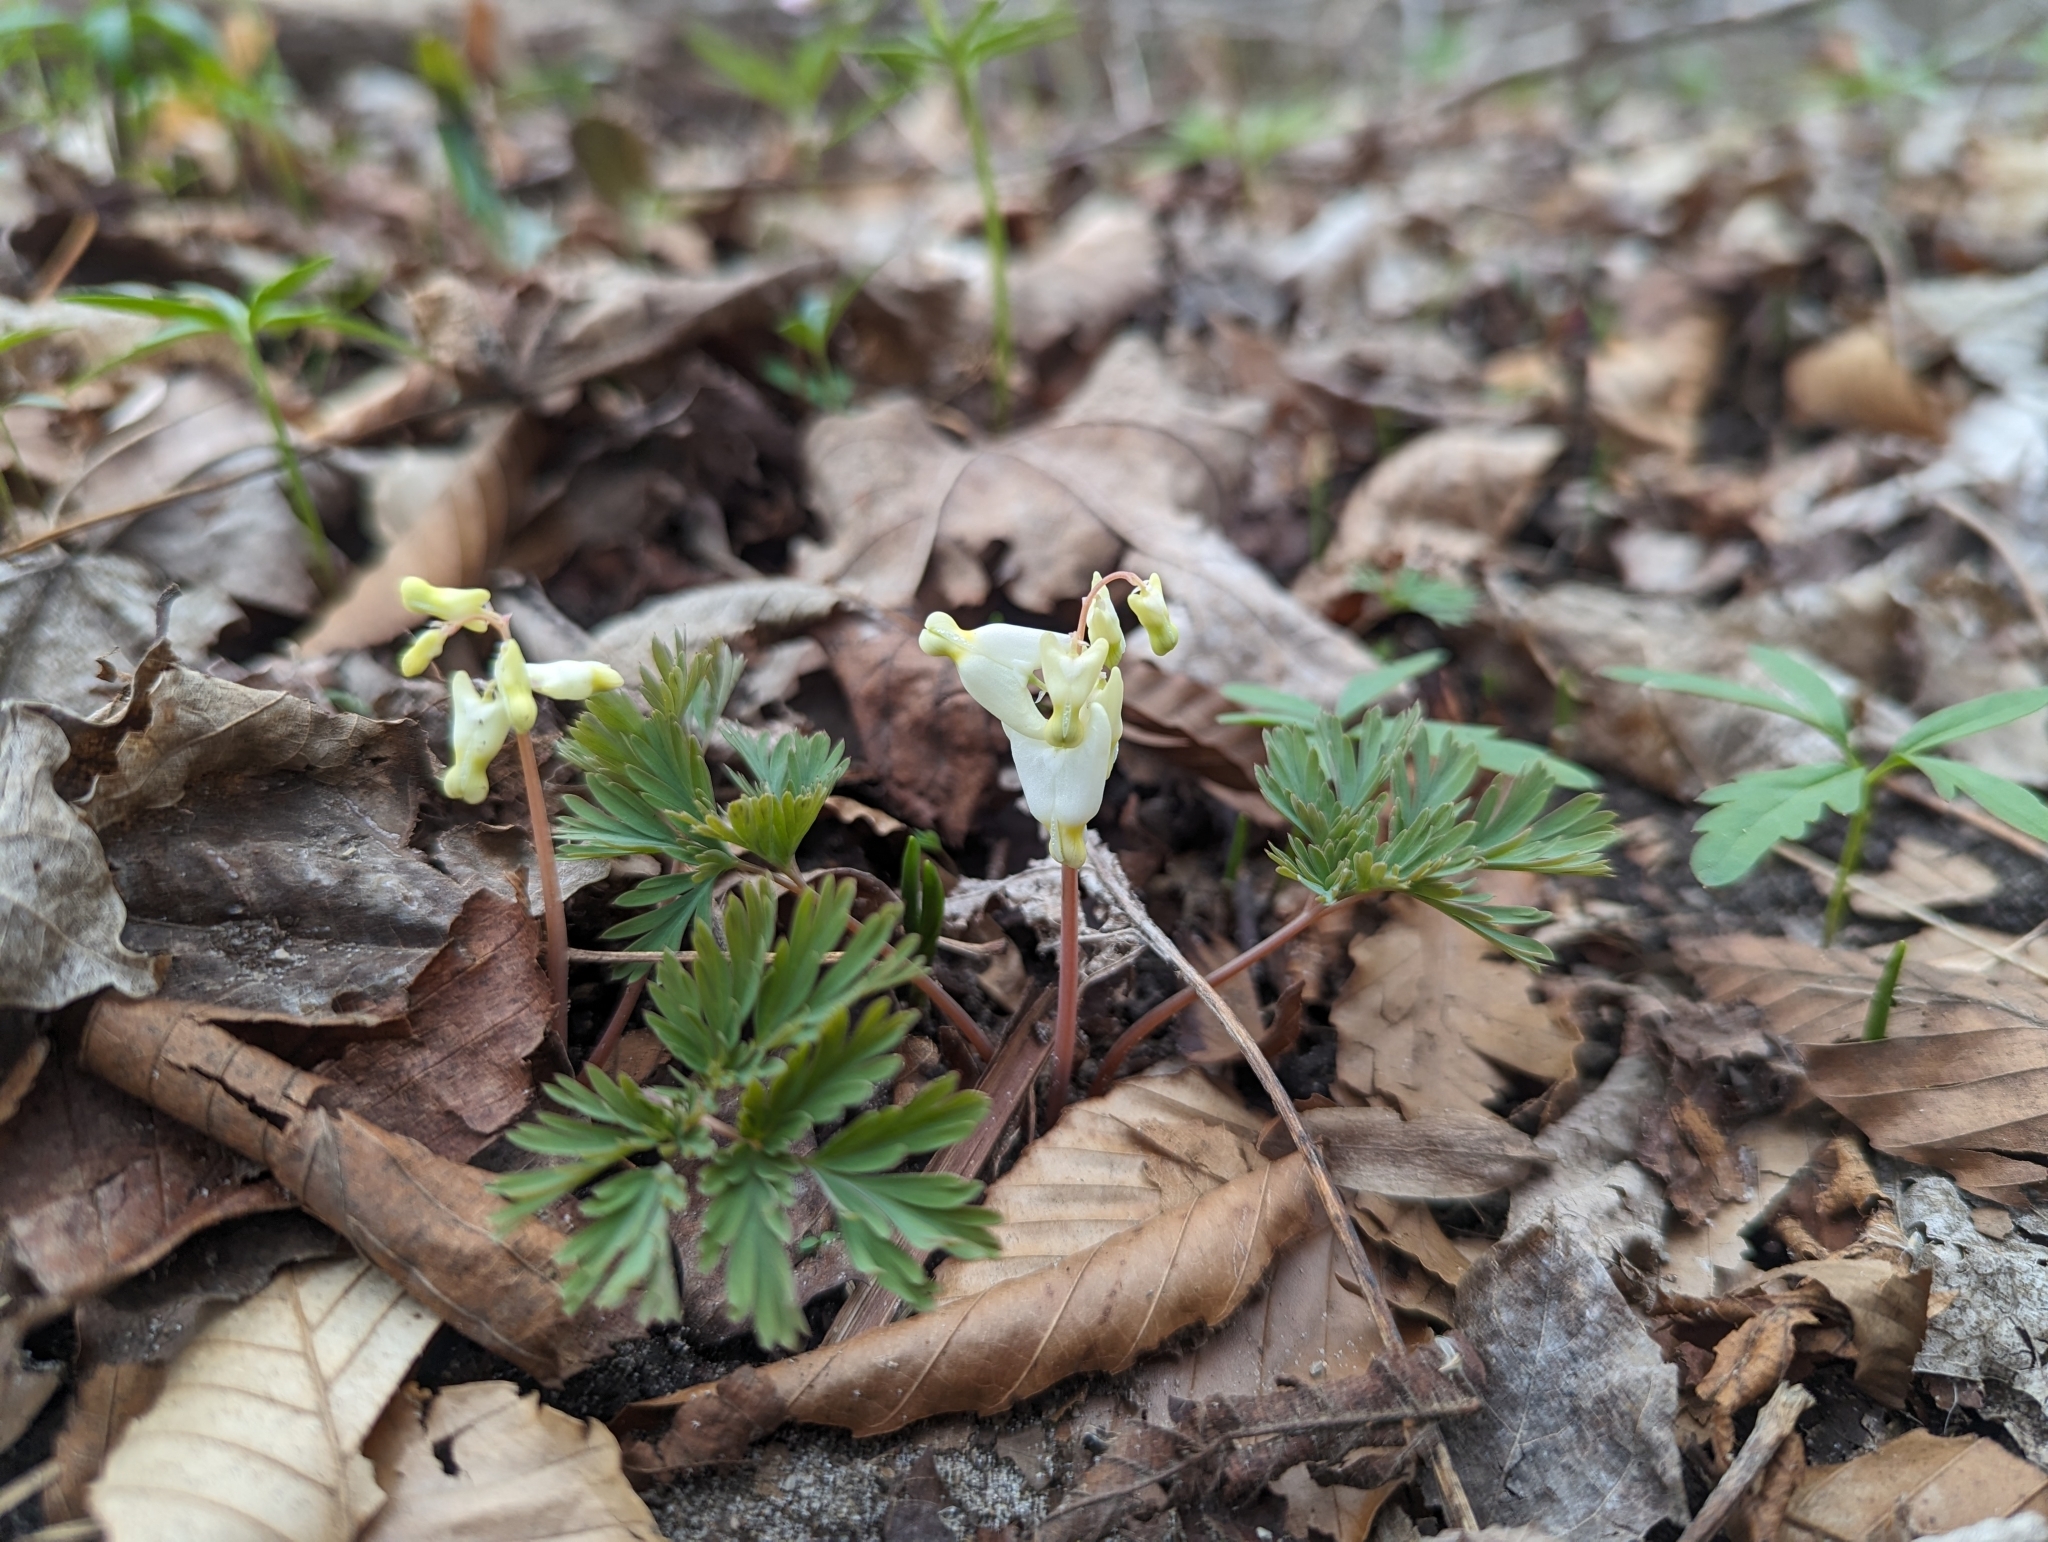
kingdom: Plantae
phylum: Tracheophyta
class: Magnoliopsida
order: Ranunculales
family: Papaveraceae
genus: Dicentra
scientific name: Dicentra cucullaria
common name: Dutchman's breeches
